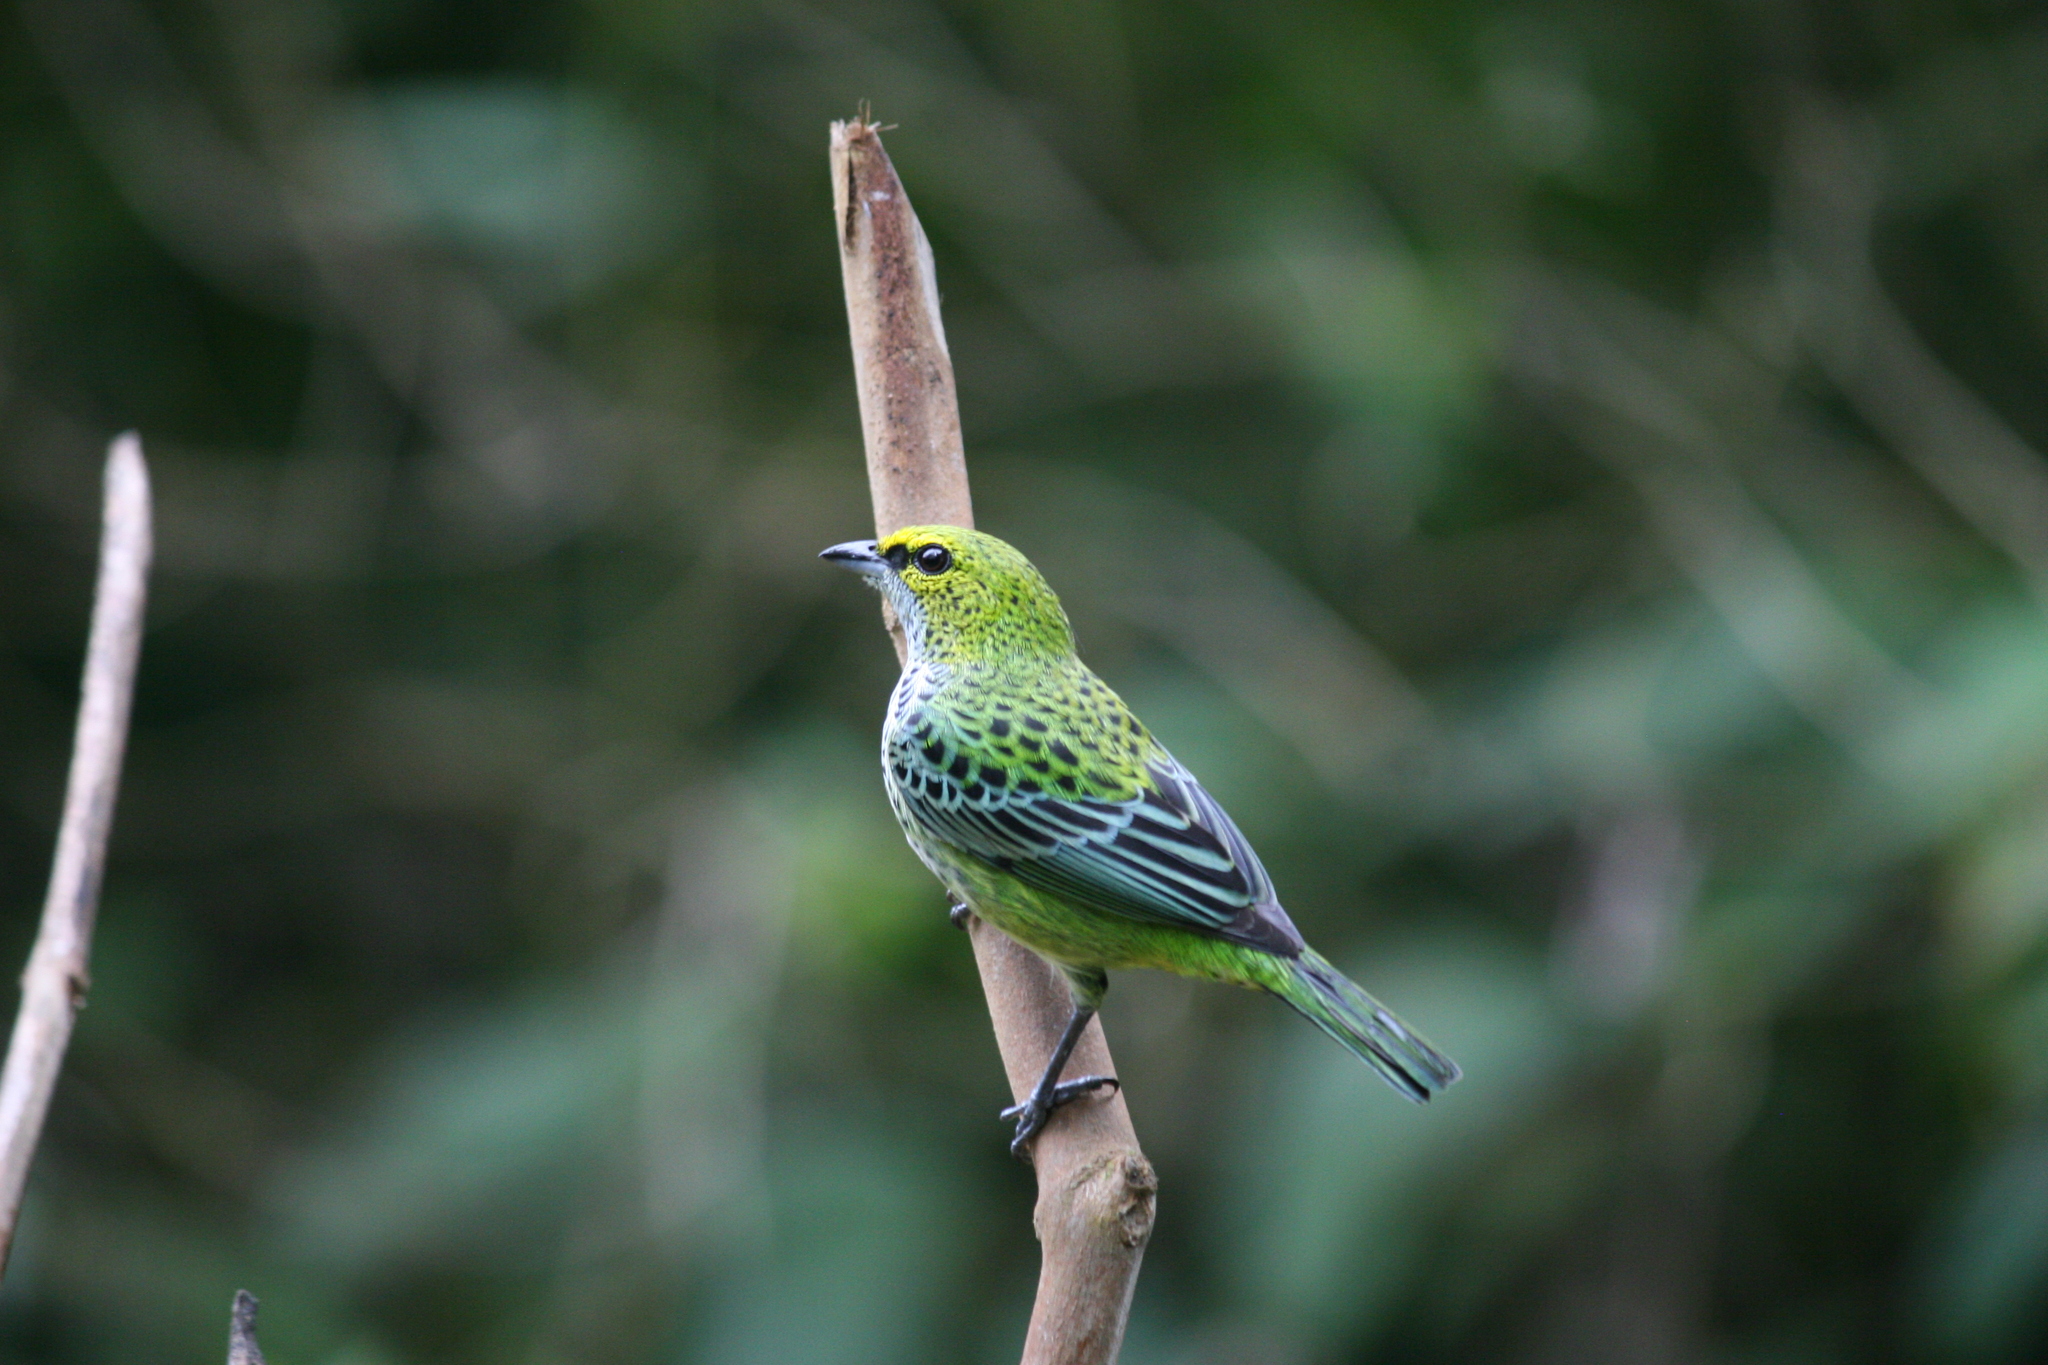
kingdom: Animalia
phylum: Chordata
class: Aves
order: Passeriformes
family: Thraupidae
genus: Ixothraupis
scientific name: Ixothraupis guttata
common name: Speckled tanager
